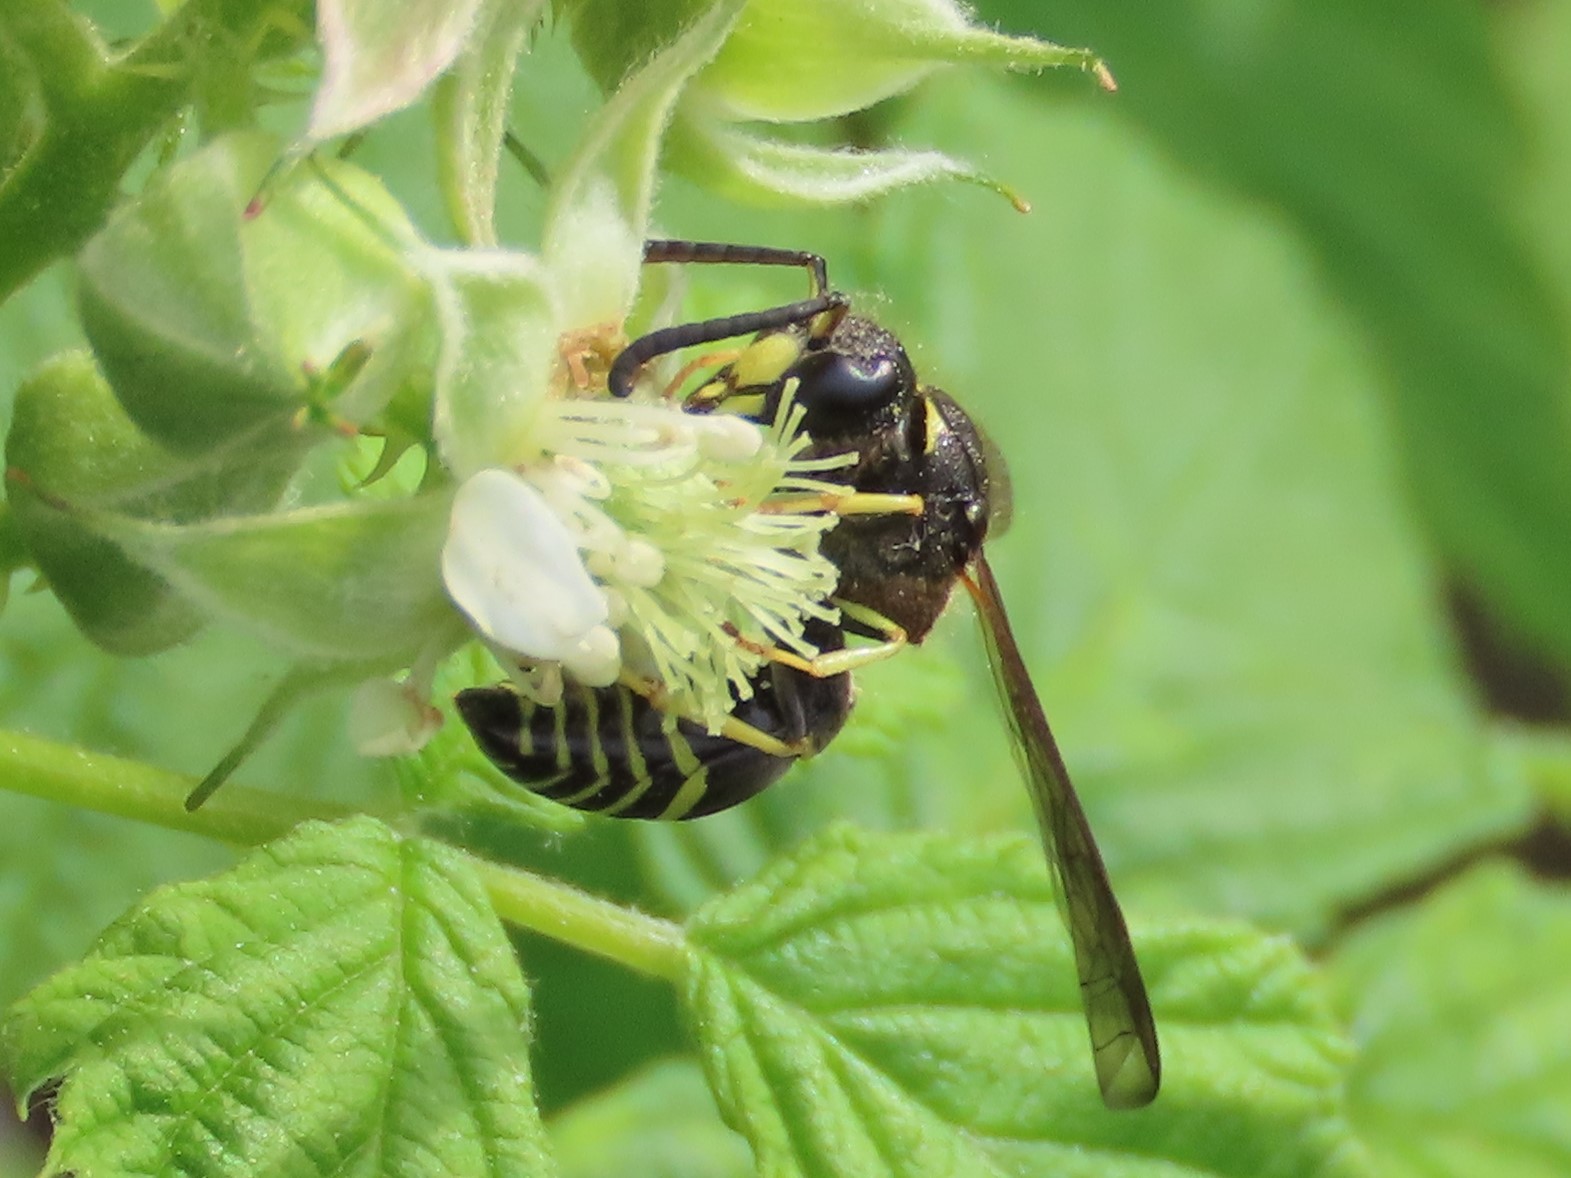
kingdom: Animalia
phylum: Arthropoda
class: Insecta
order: Hymenoptera
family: Vespidae
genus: Ancistrocerus
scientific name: Ancistrocerus
